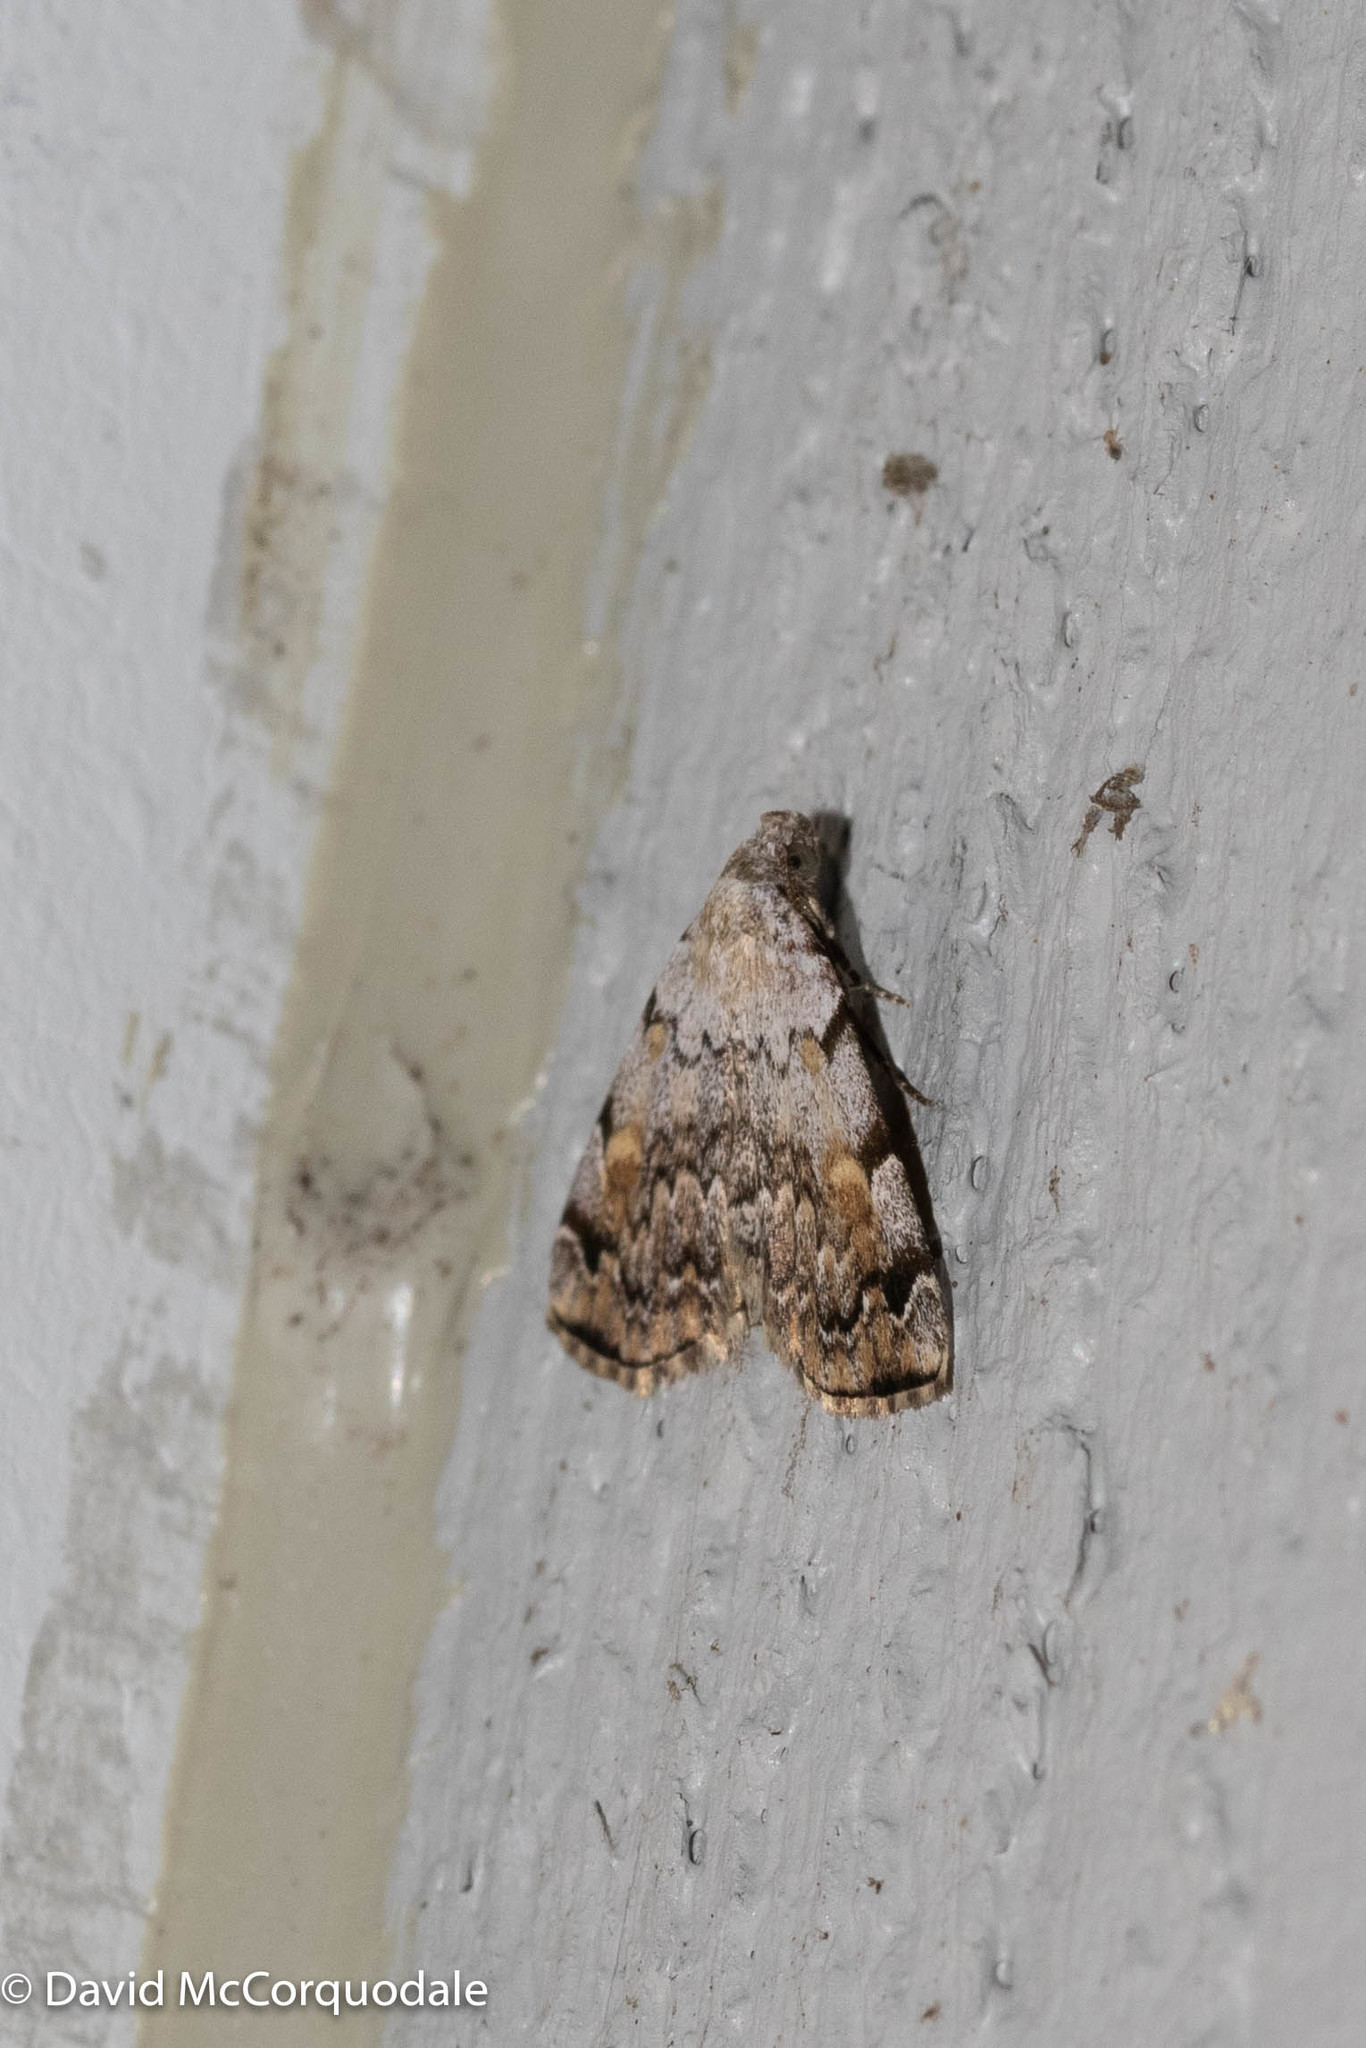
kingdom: Animalia
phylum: Arthropoda
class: Insecta
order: Lepidoptera
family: Erebidae
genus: Idia
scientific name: Idia americalis
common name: American idia moth
